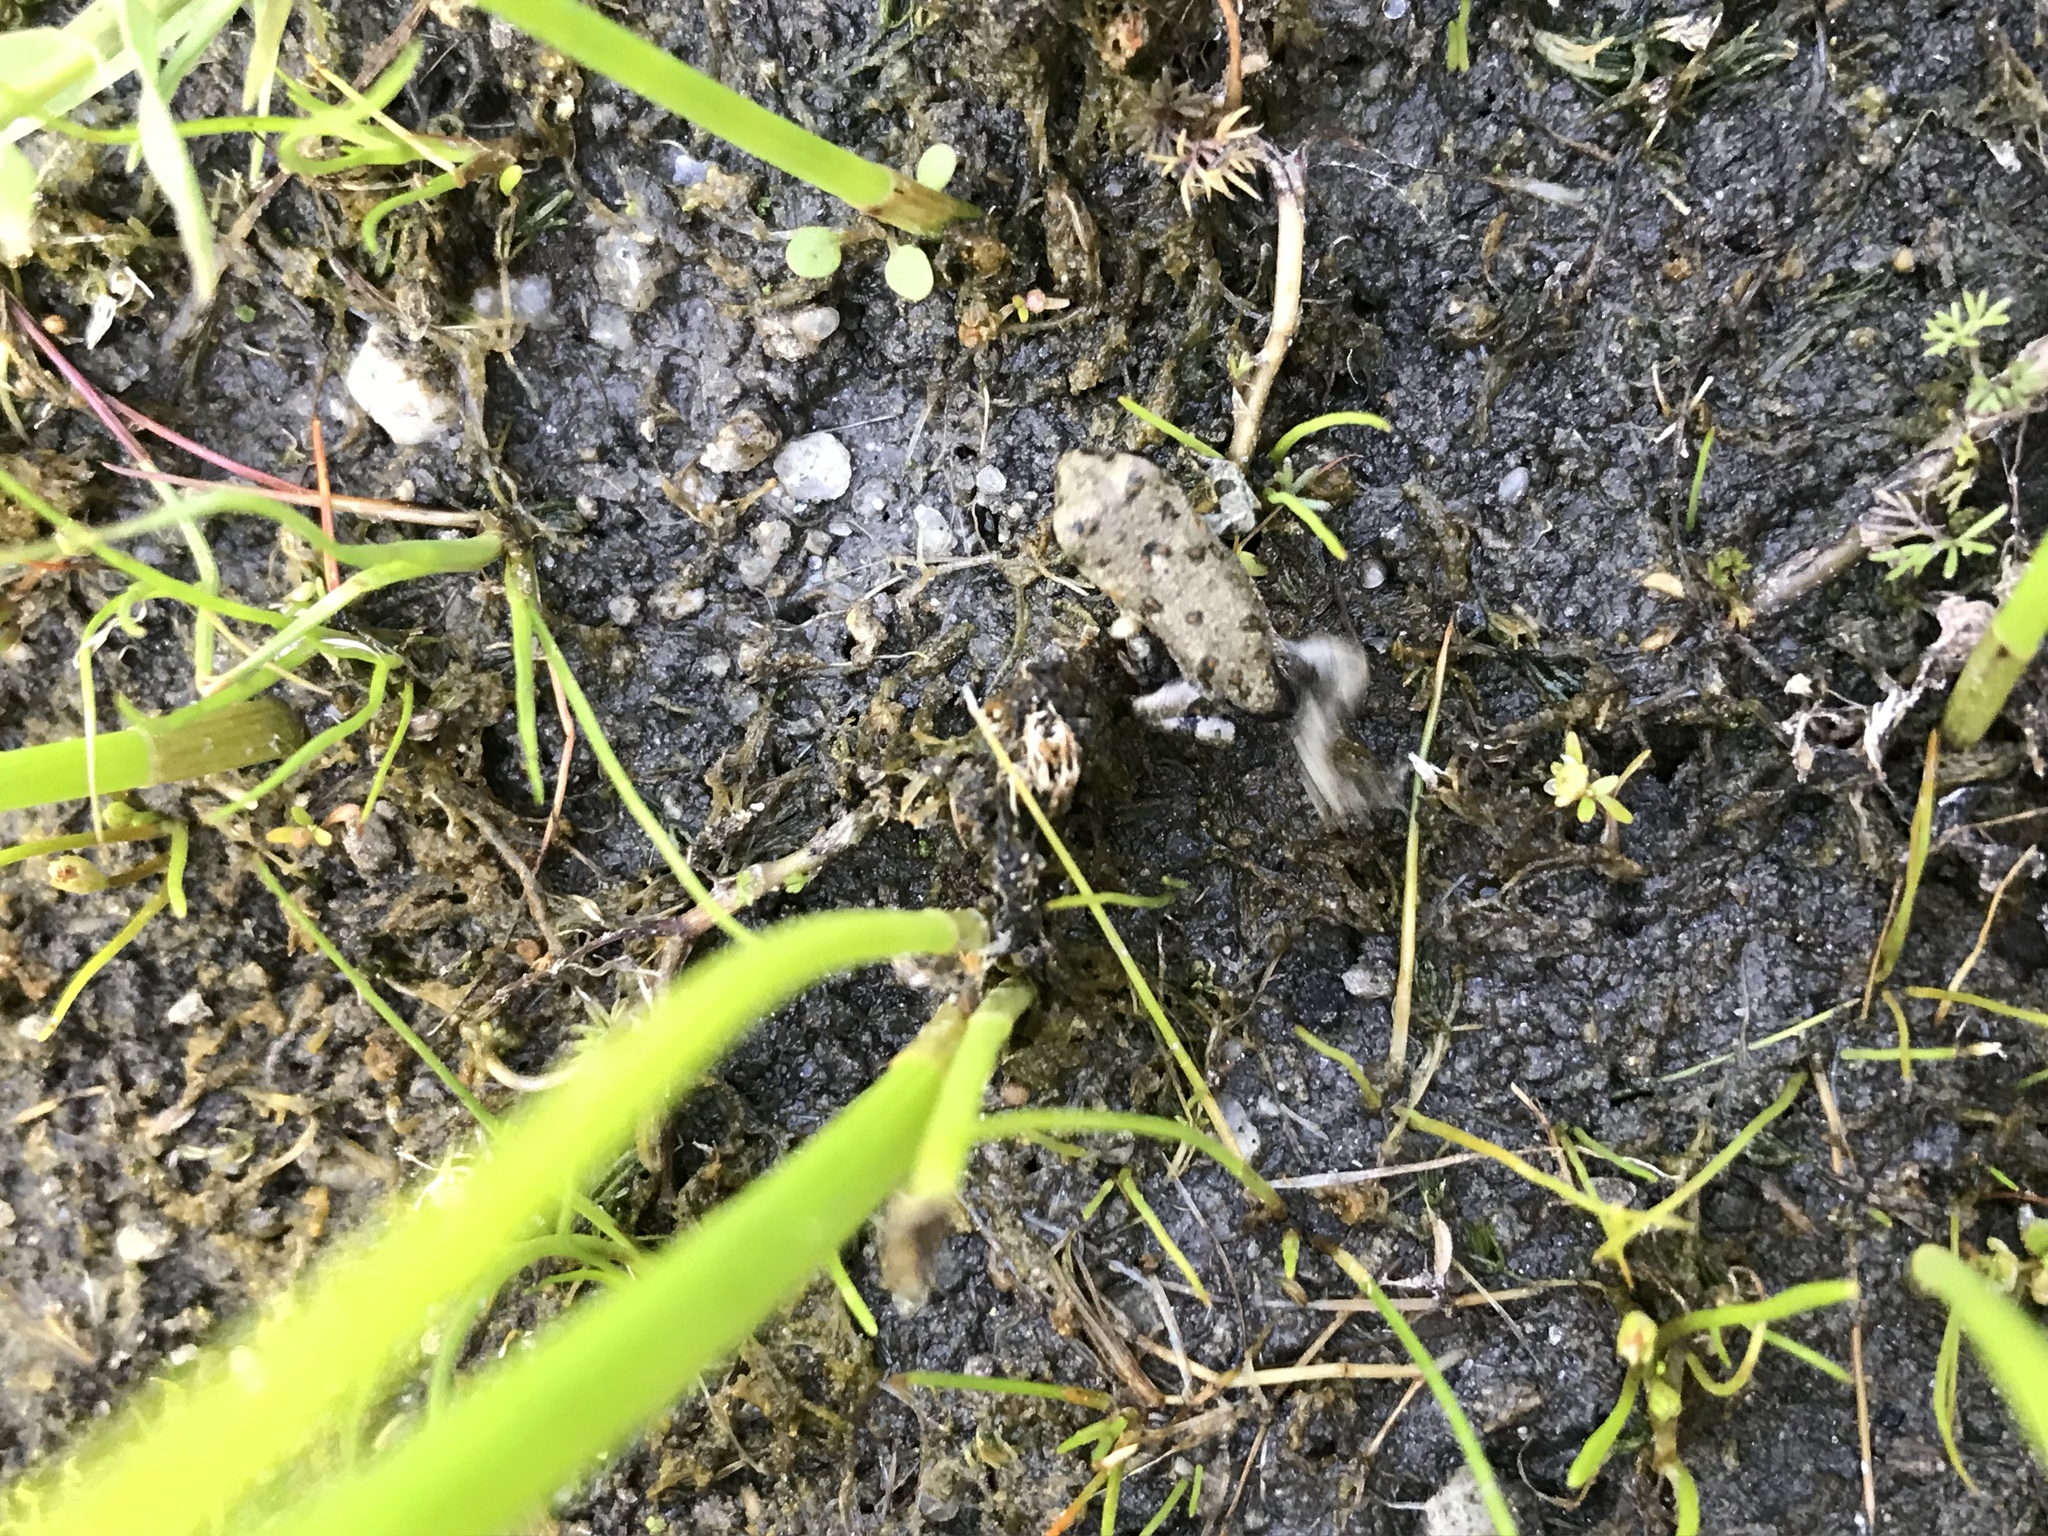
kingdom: Animalia
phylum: Chordata
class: Amphibia
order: Anura
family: Bufonidae
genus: Anaxyrus
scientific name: Anaxyrus boreas
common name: Western toad
